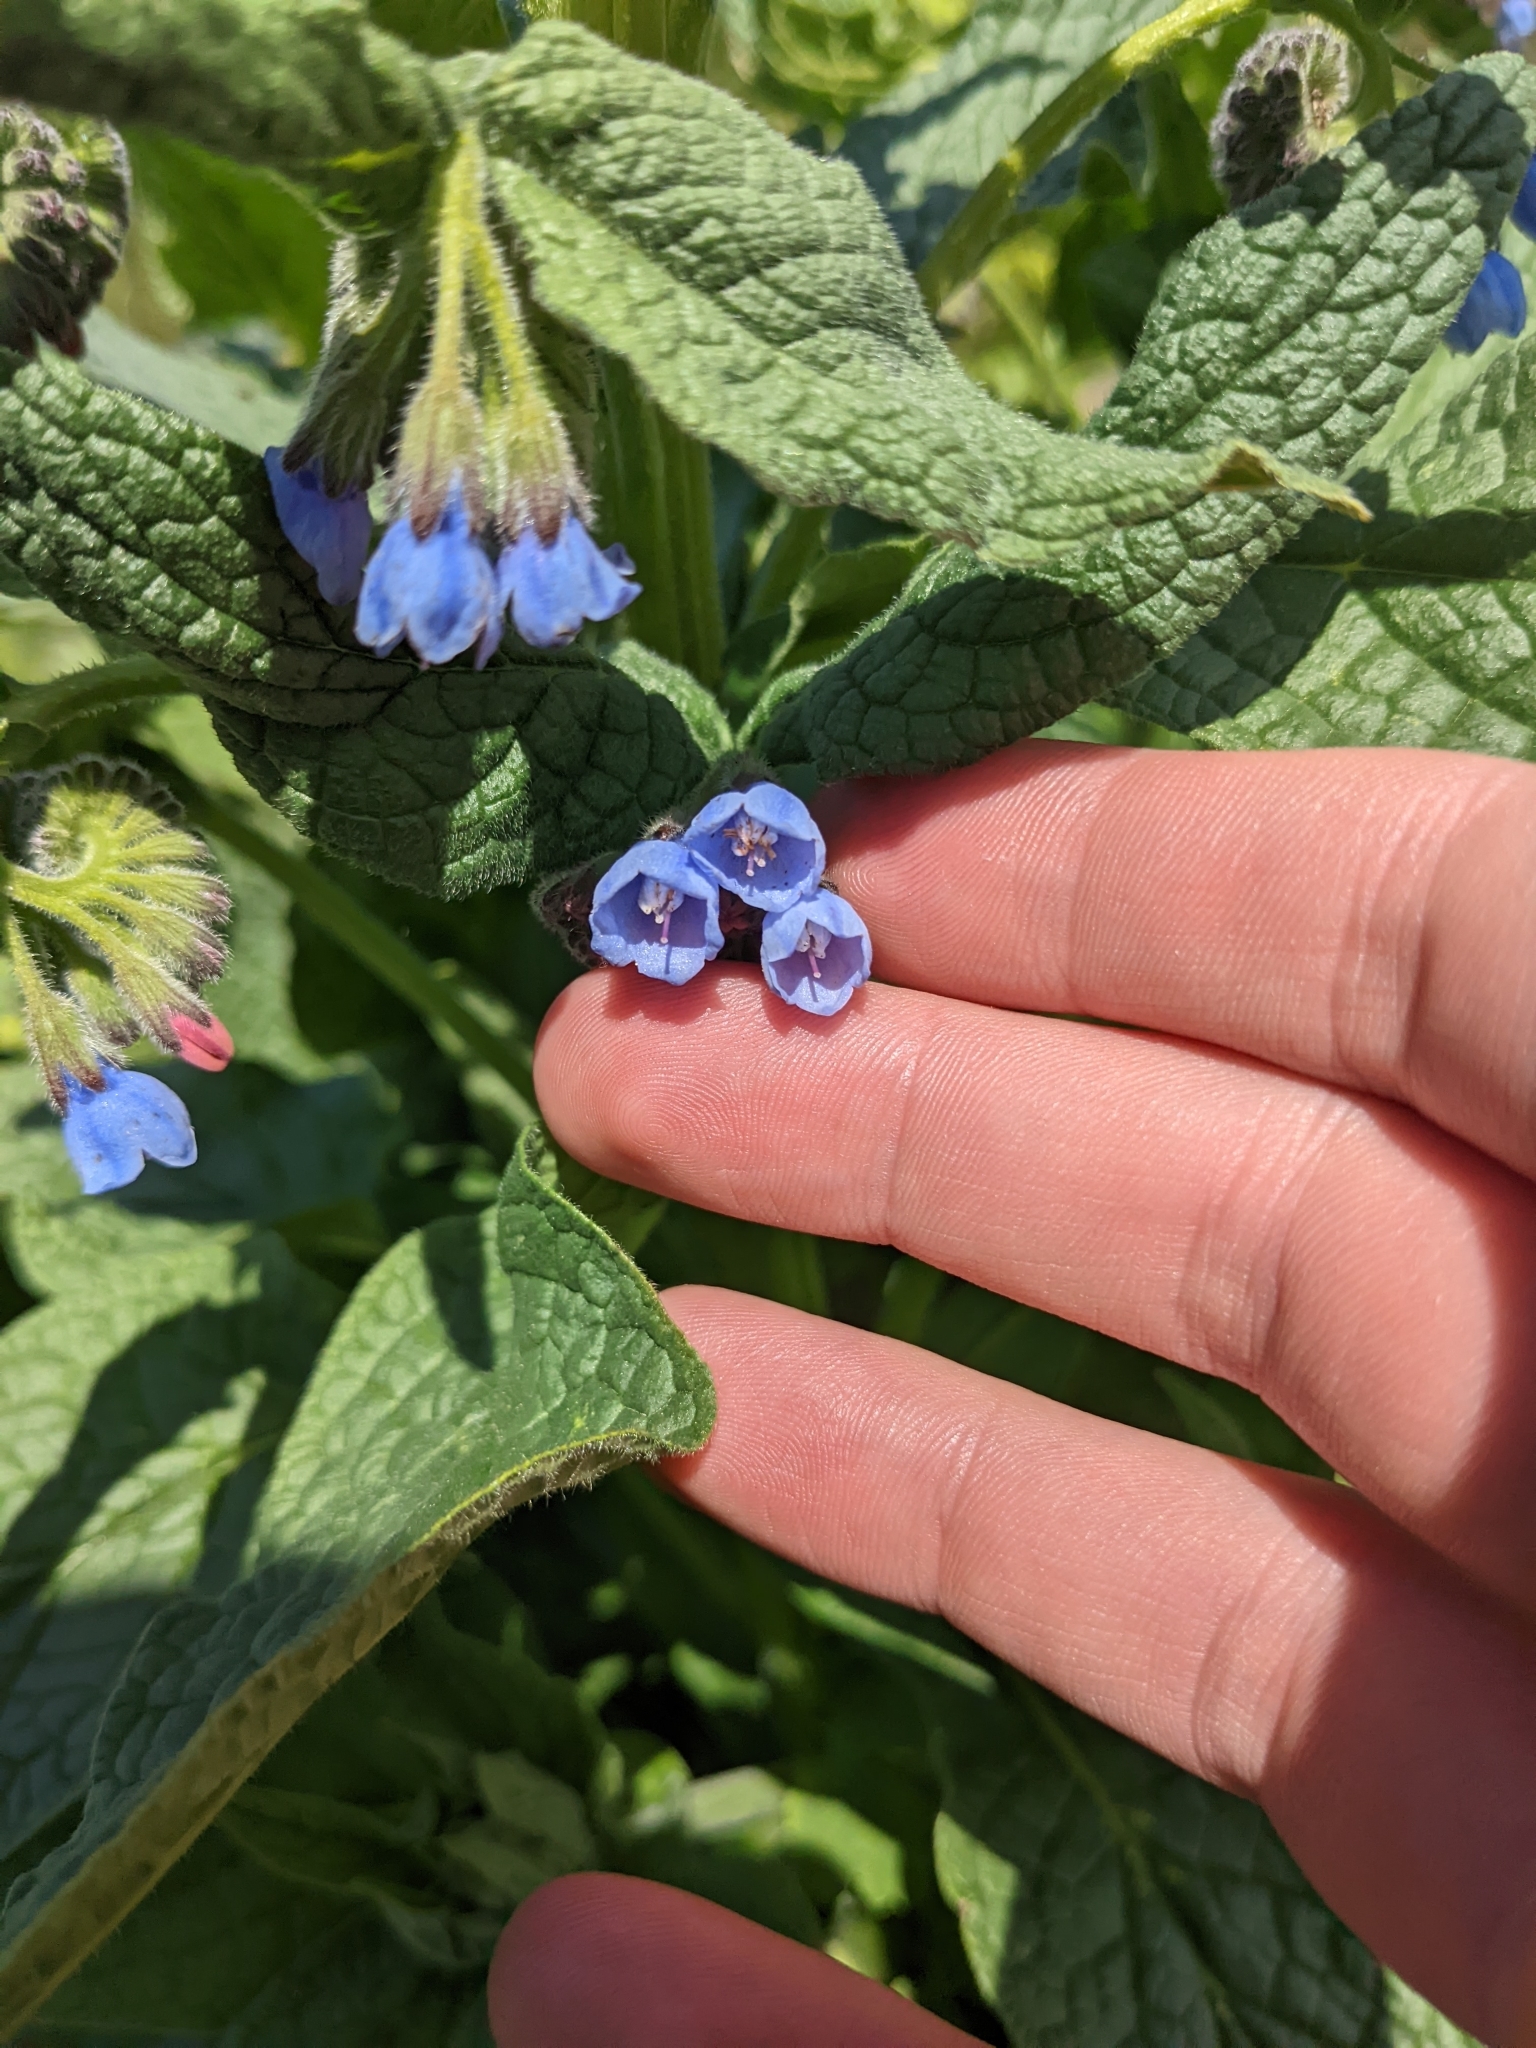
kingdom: Plantae
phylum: Tracheophyta
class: Magnoliopsida
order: Boraginales
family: Boraginaceae
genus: Symphytum
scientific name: Symphytum caucasicum
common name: Caucasian comfrey
